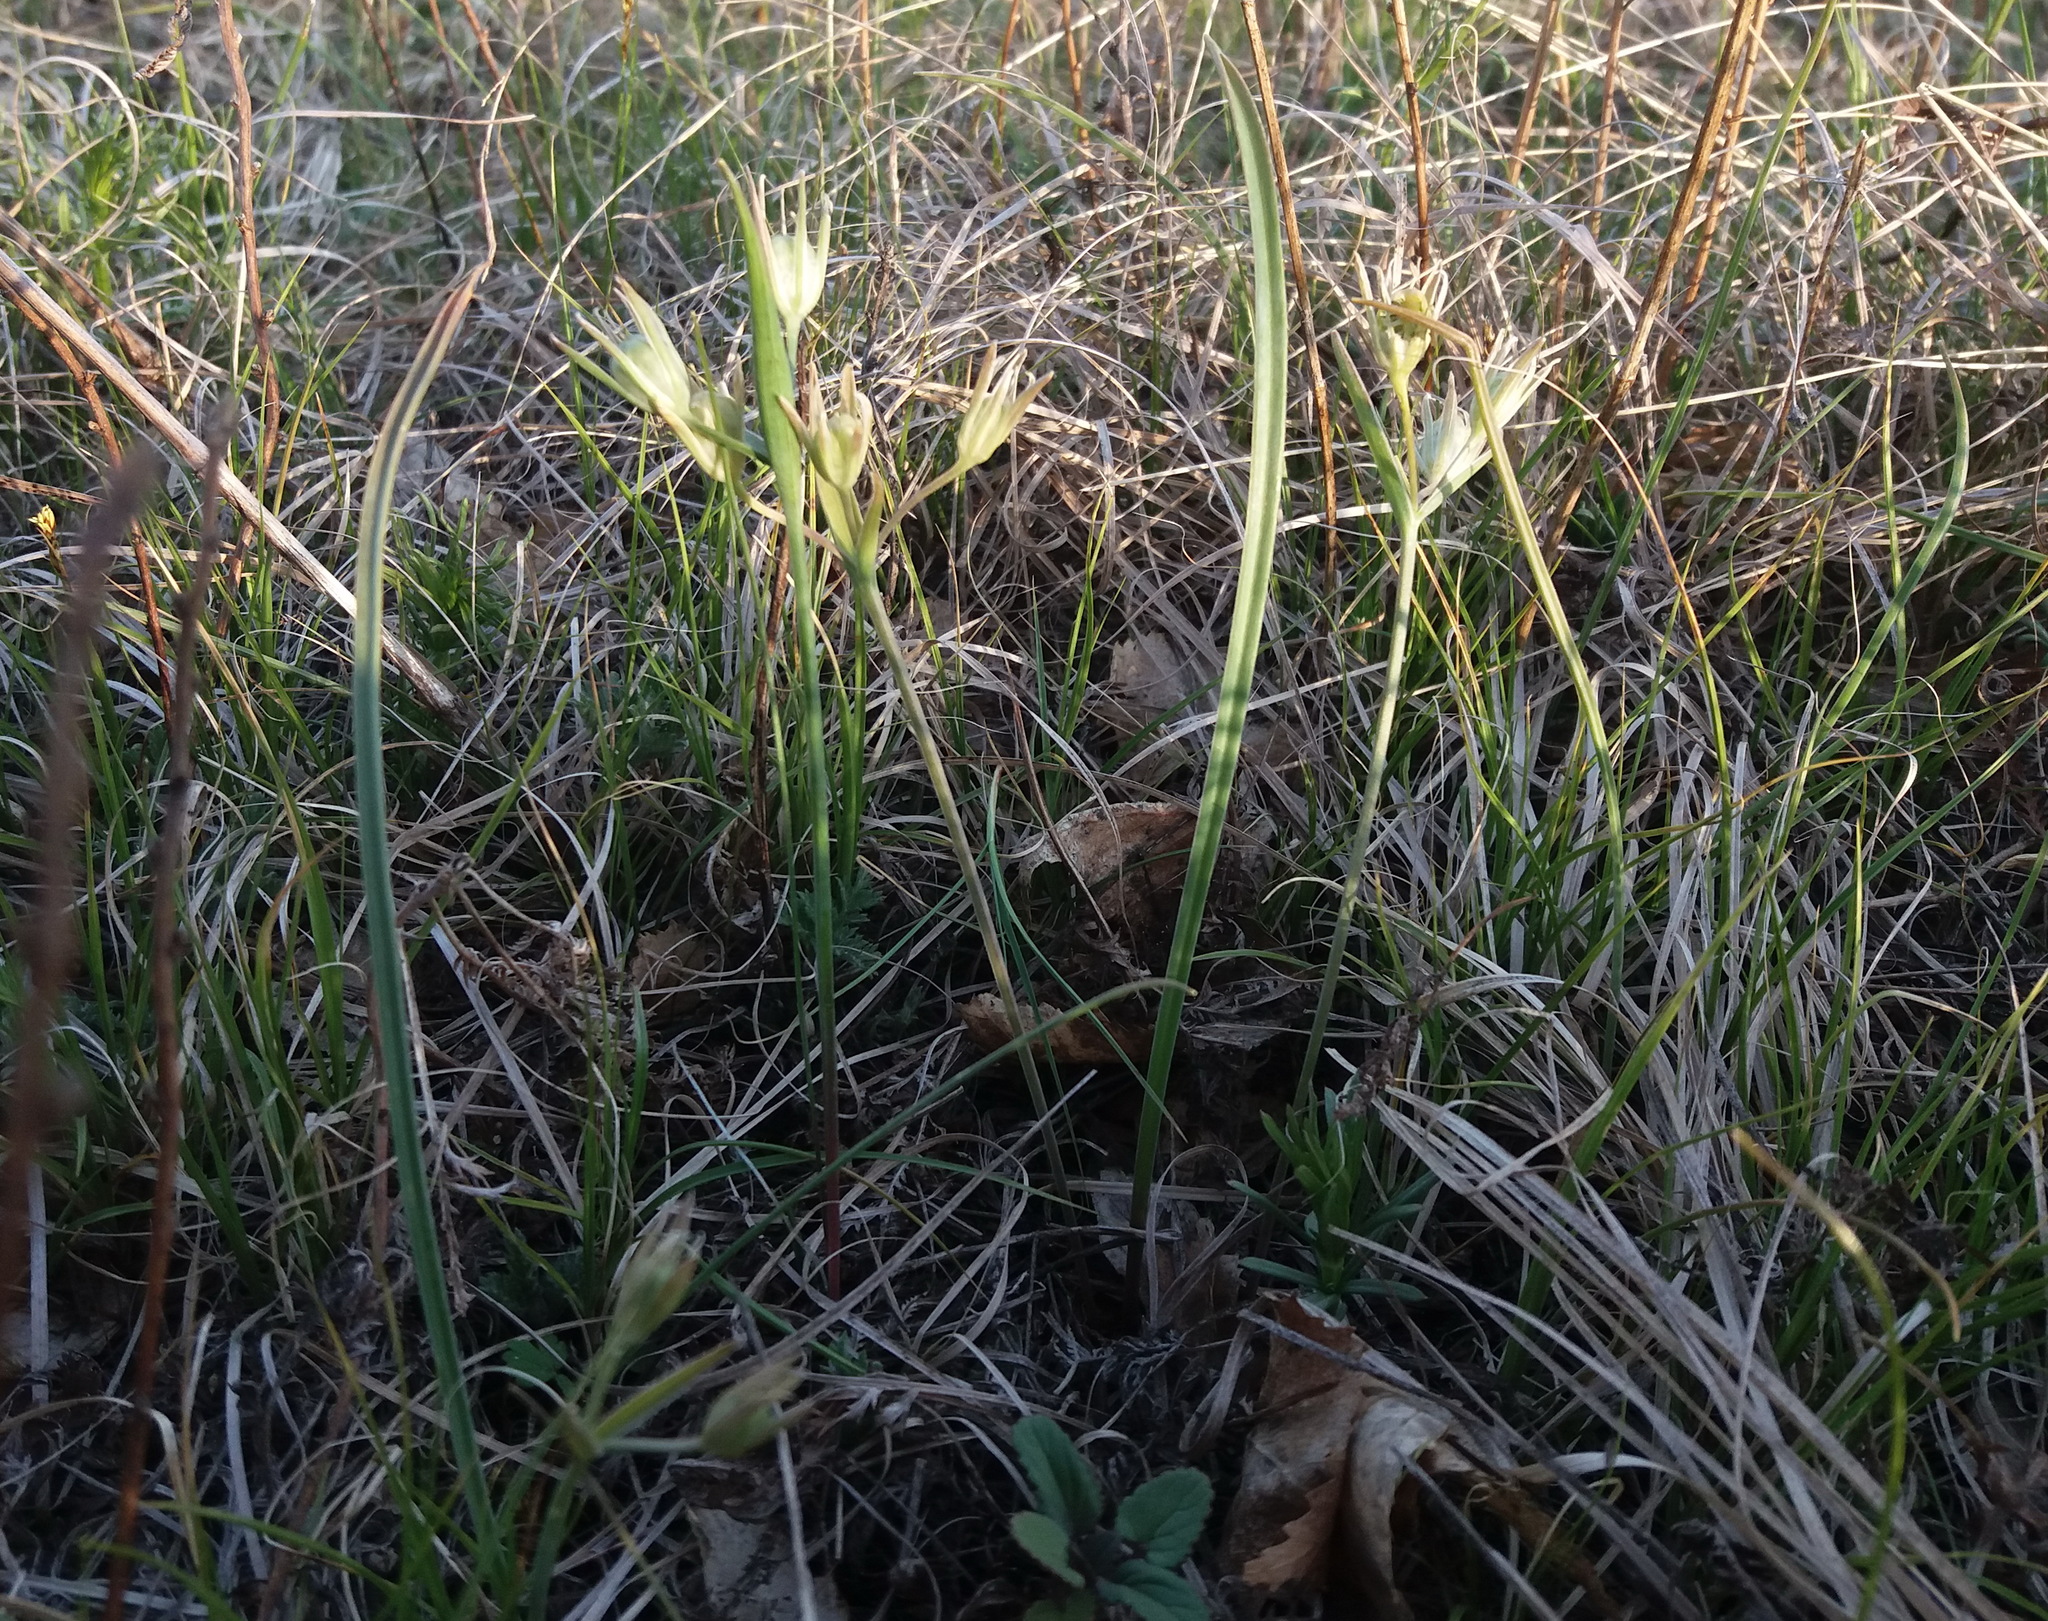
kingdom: Plantae
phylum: Tracheophyta
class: Liliopsida
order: Liliales
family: Liliaceae
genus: Gagea
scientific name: Gagea fedtschenkoana
